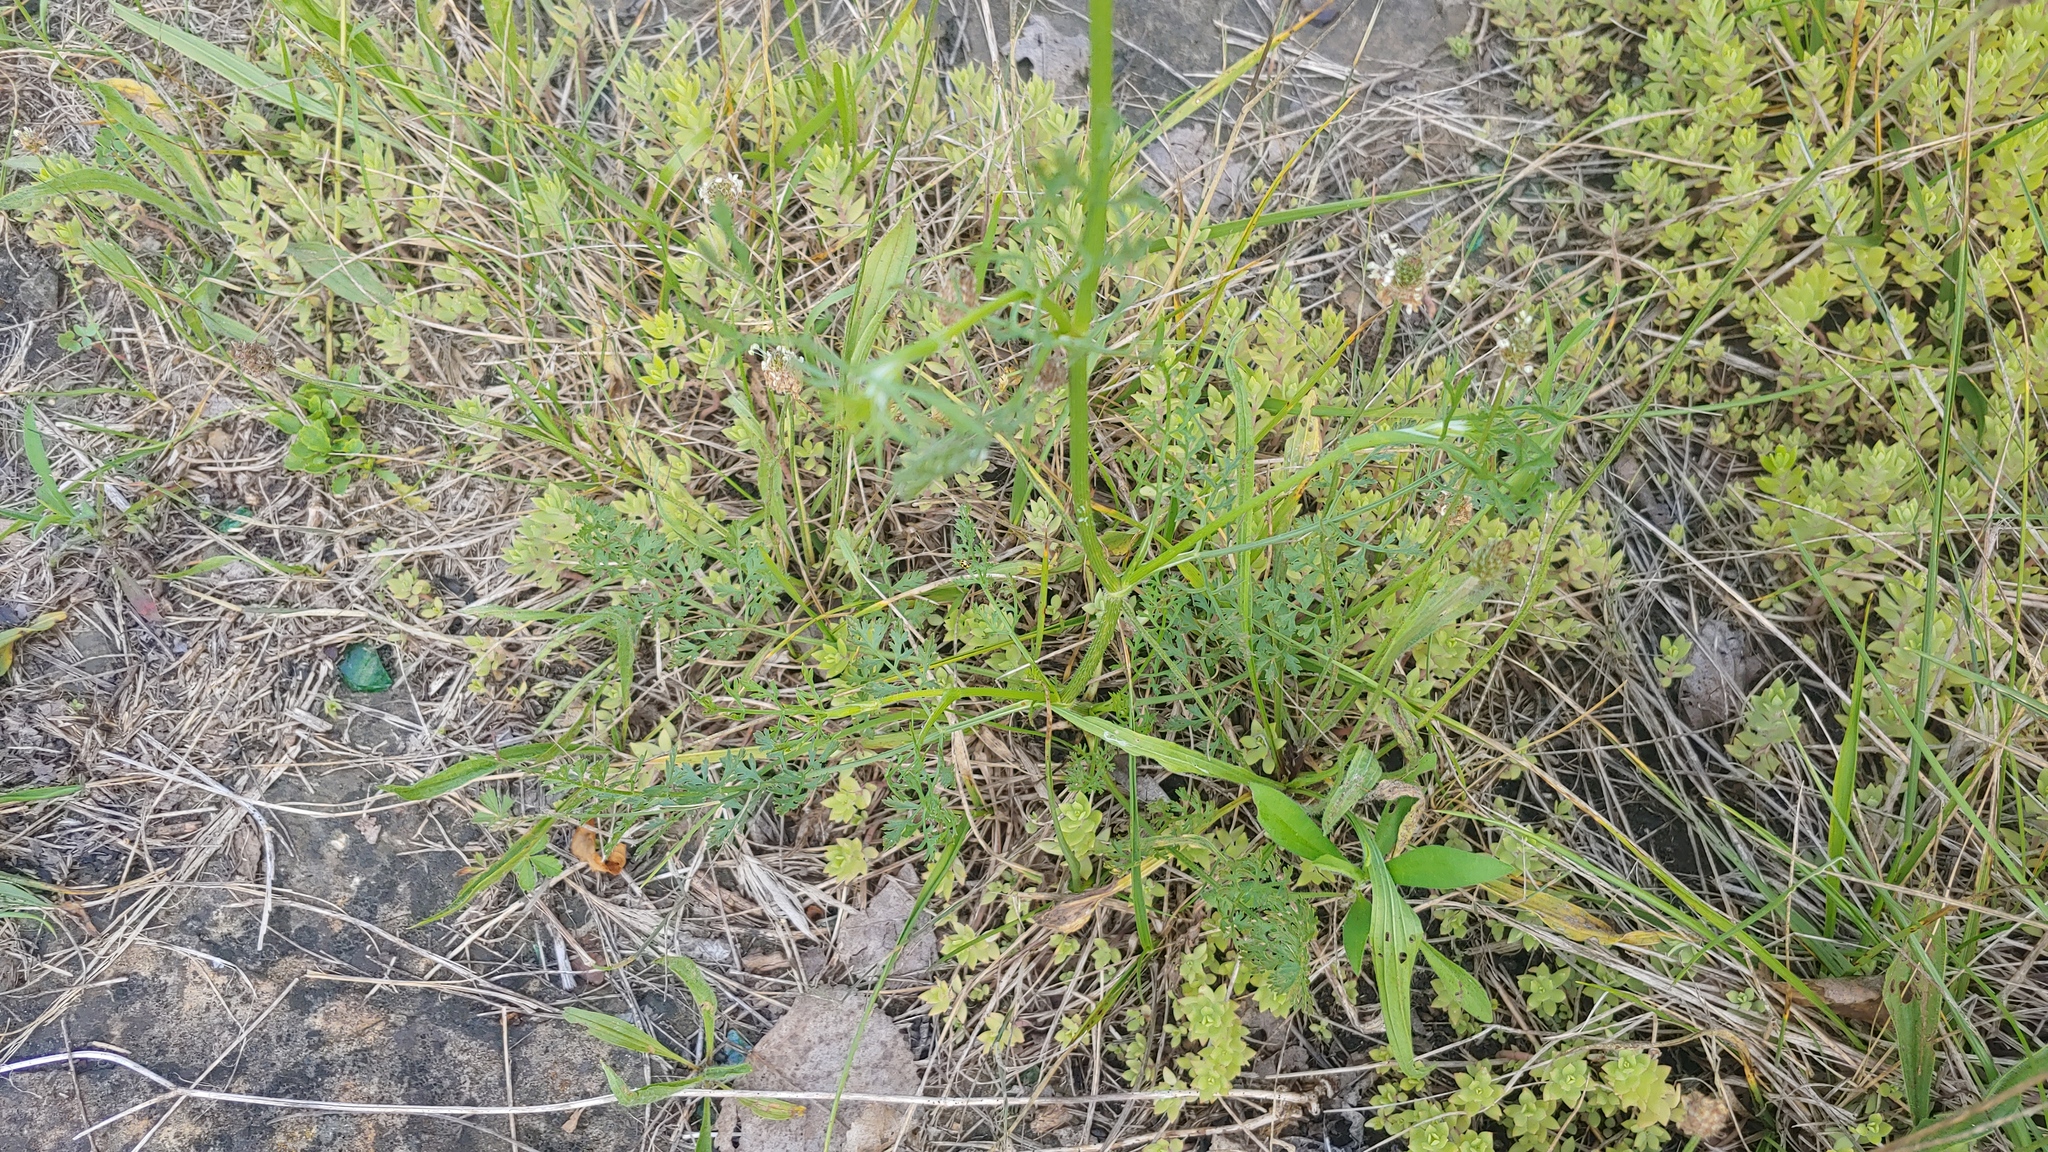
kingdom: Plantae
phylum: Tracheophyta
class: Magnoliopsida
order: Apiales
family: Apiaceae
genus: Daucus
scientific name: Daucus carota
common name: Wild carrot
